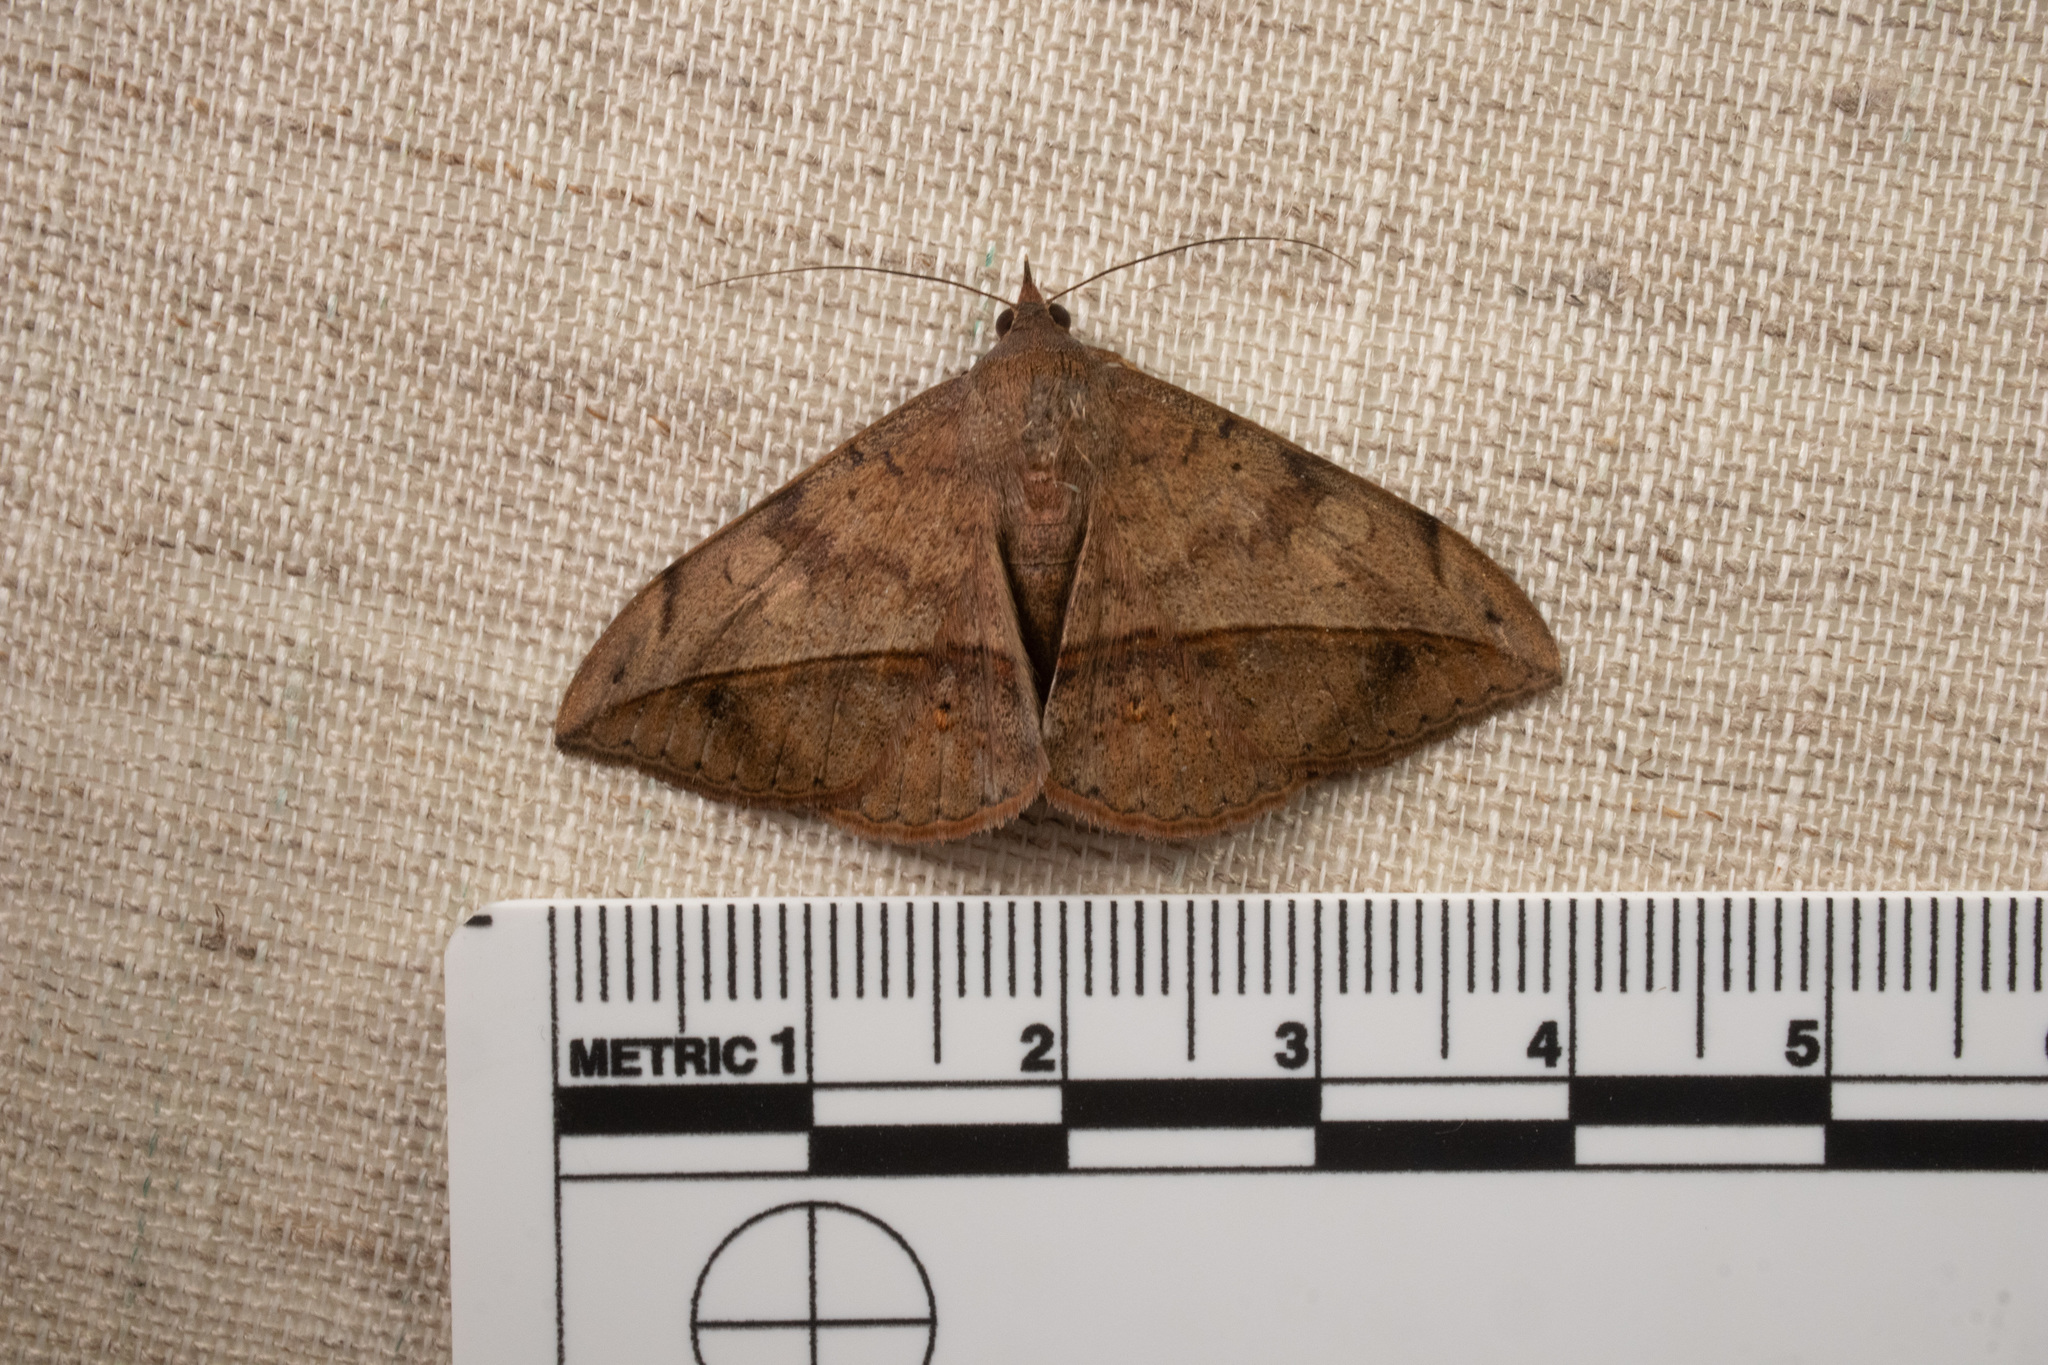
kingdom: Animalia
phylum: Arthropoda
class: Insecta
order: Lepidoptera
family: Erebidae
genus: Anticarsia
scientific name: Anticarsia gemmatalis
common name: Cutworm moth
